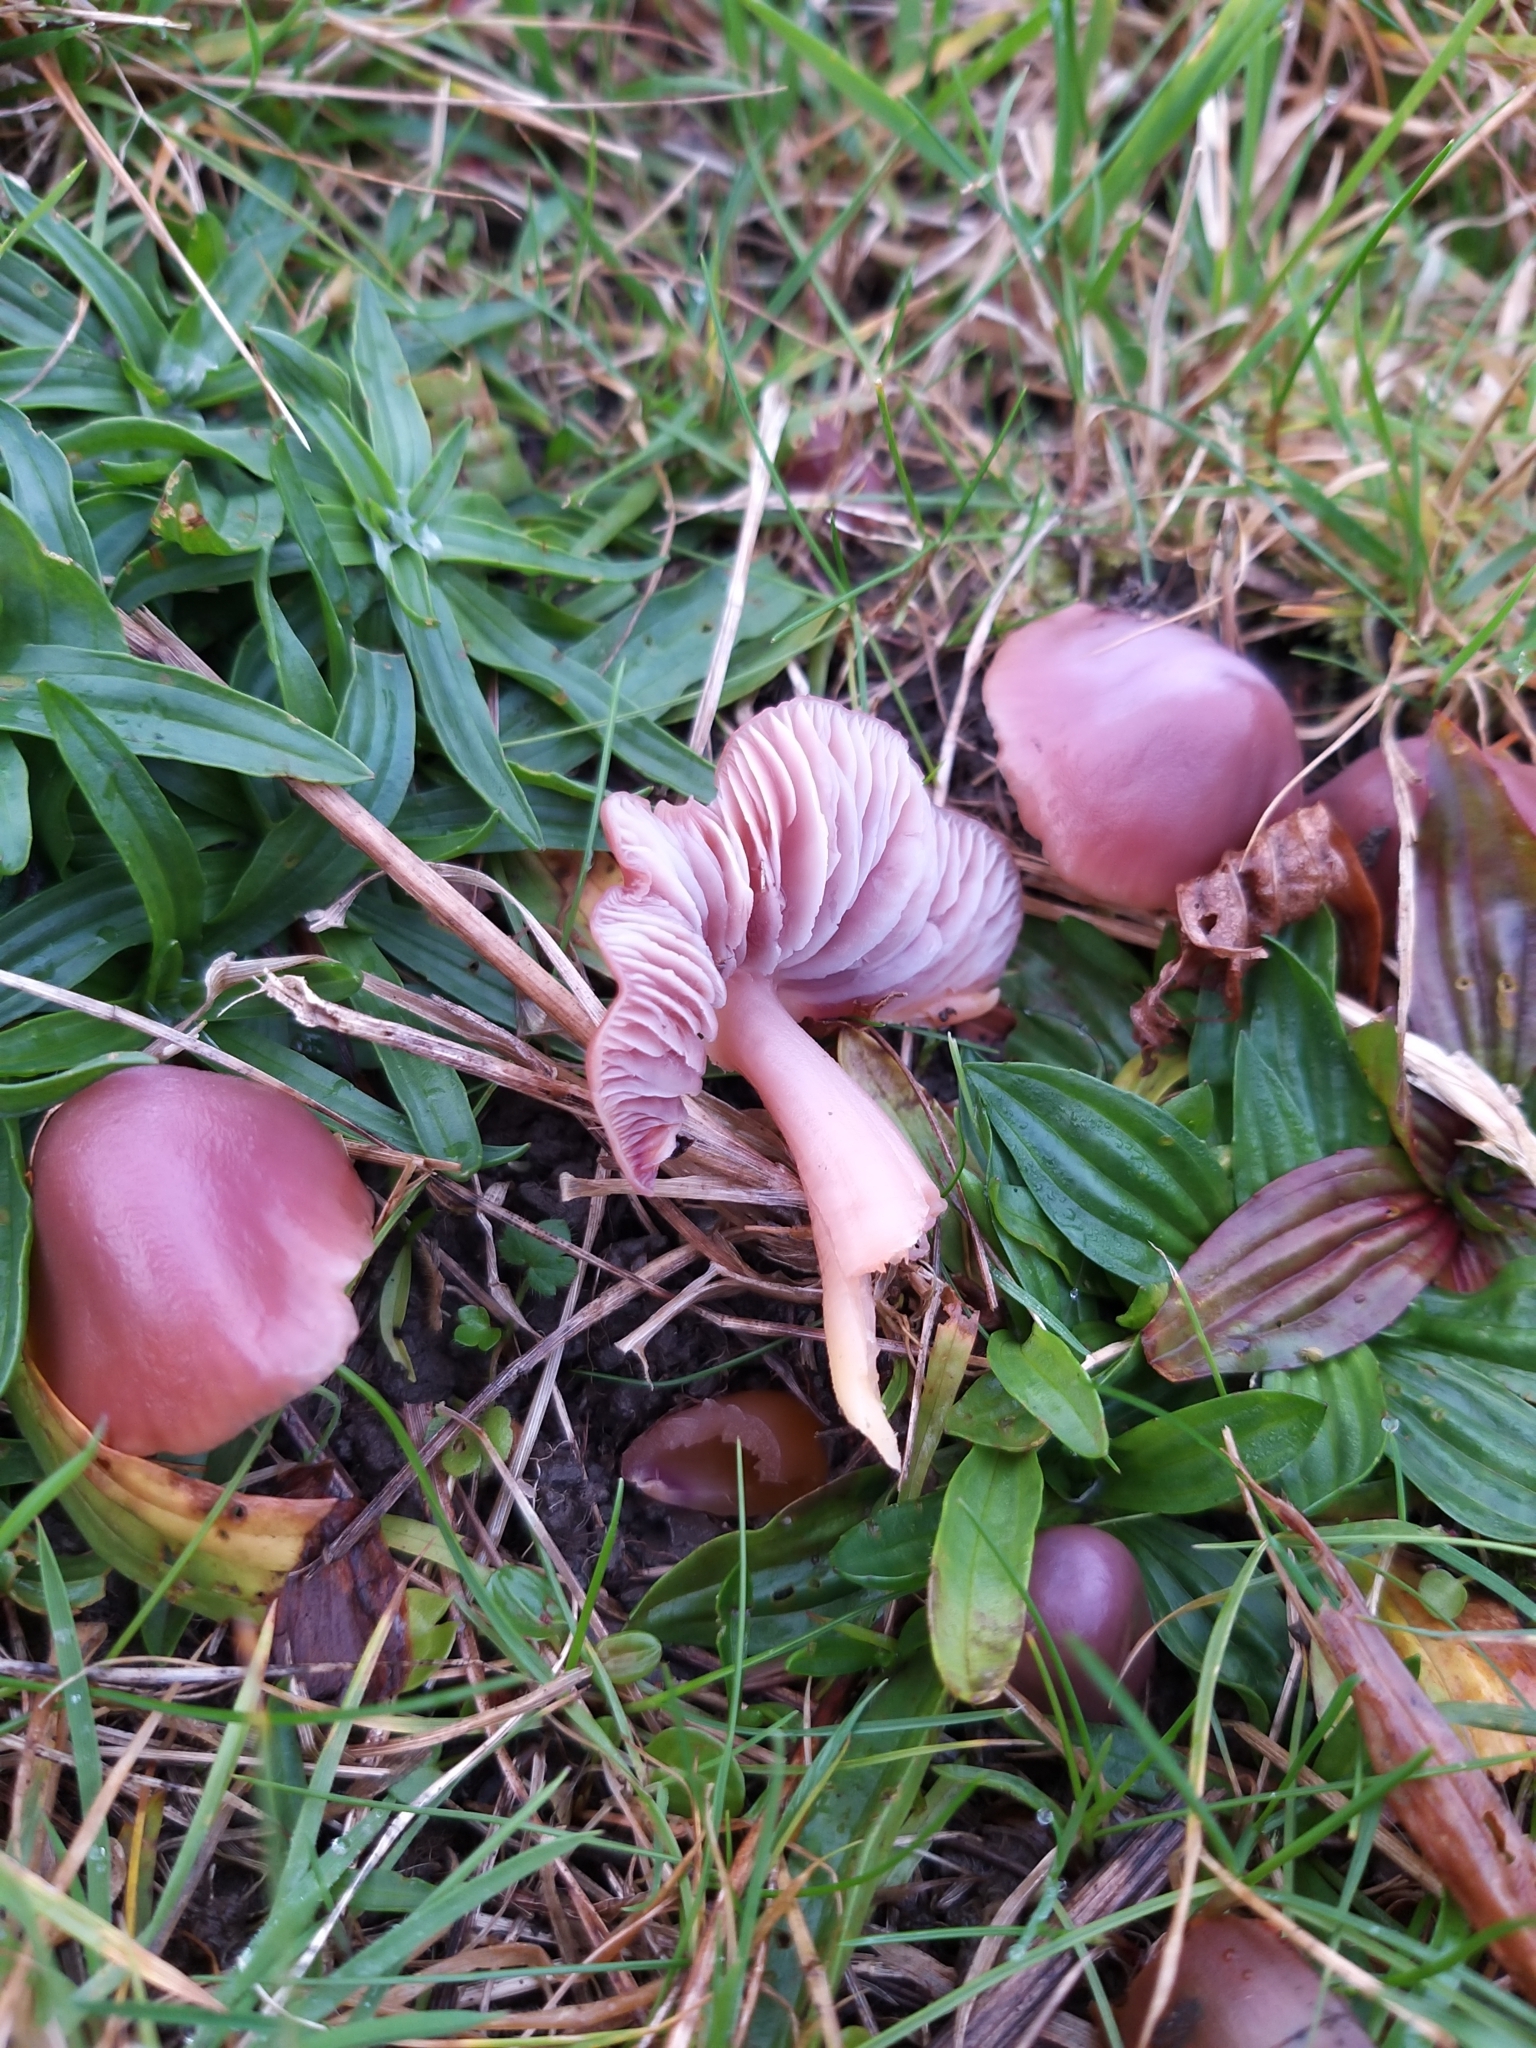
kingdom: Fungi
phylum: Basidiomycota
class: Agaricomycetes
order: Agaricales
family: Hygrophoraceae
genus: Gliophorus
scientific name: Gliophorus reginae
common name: Jubilee waxcap
